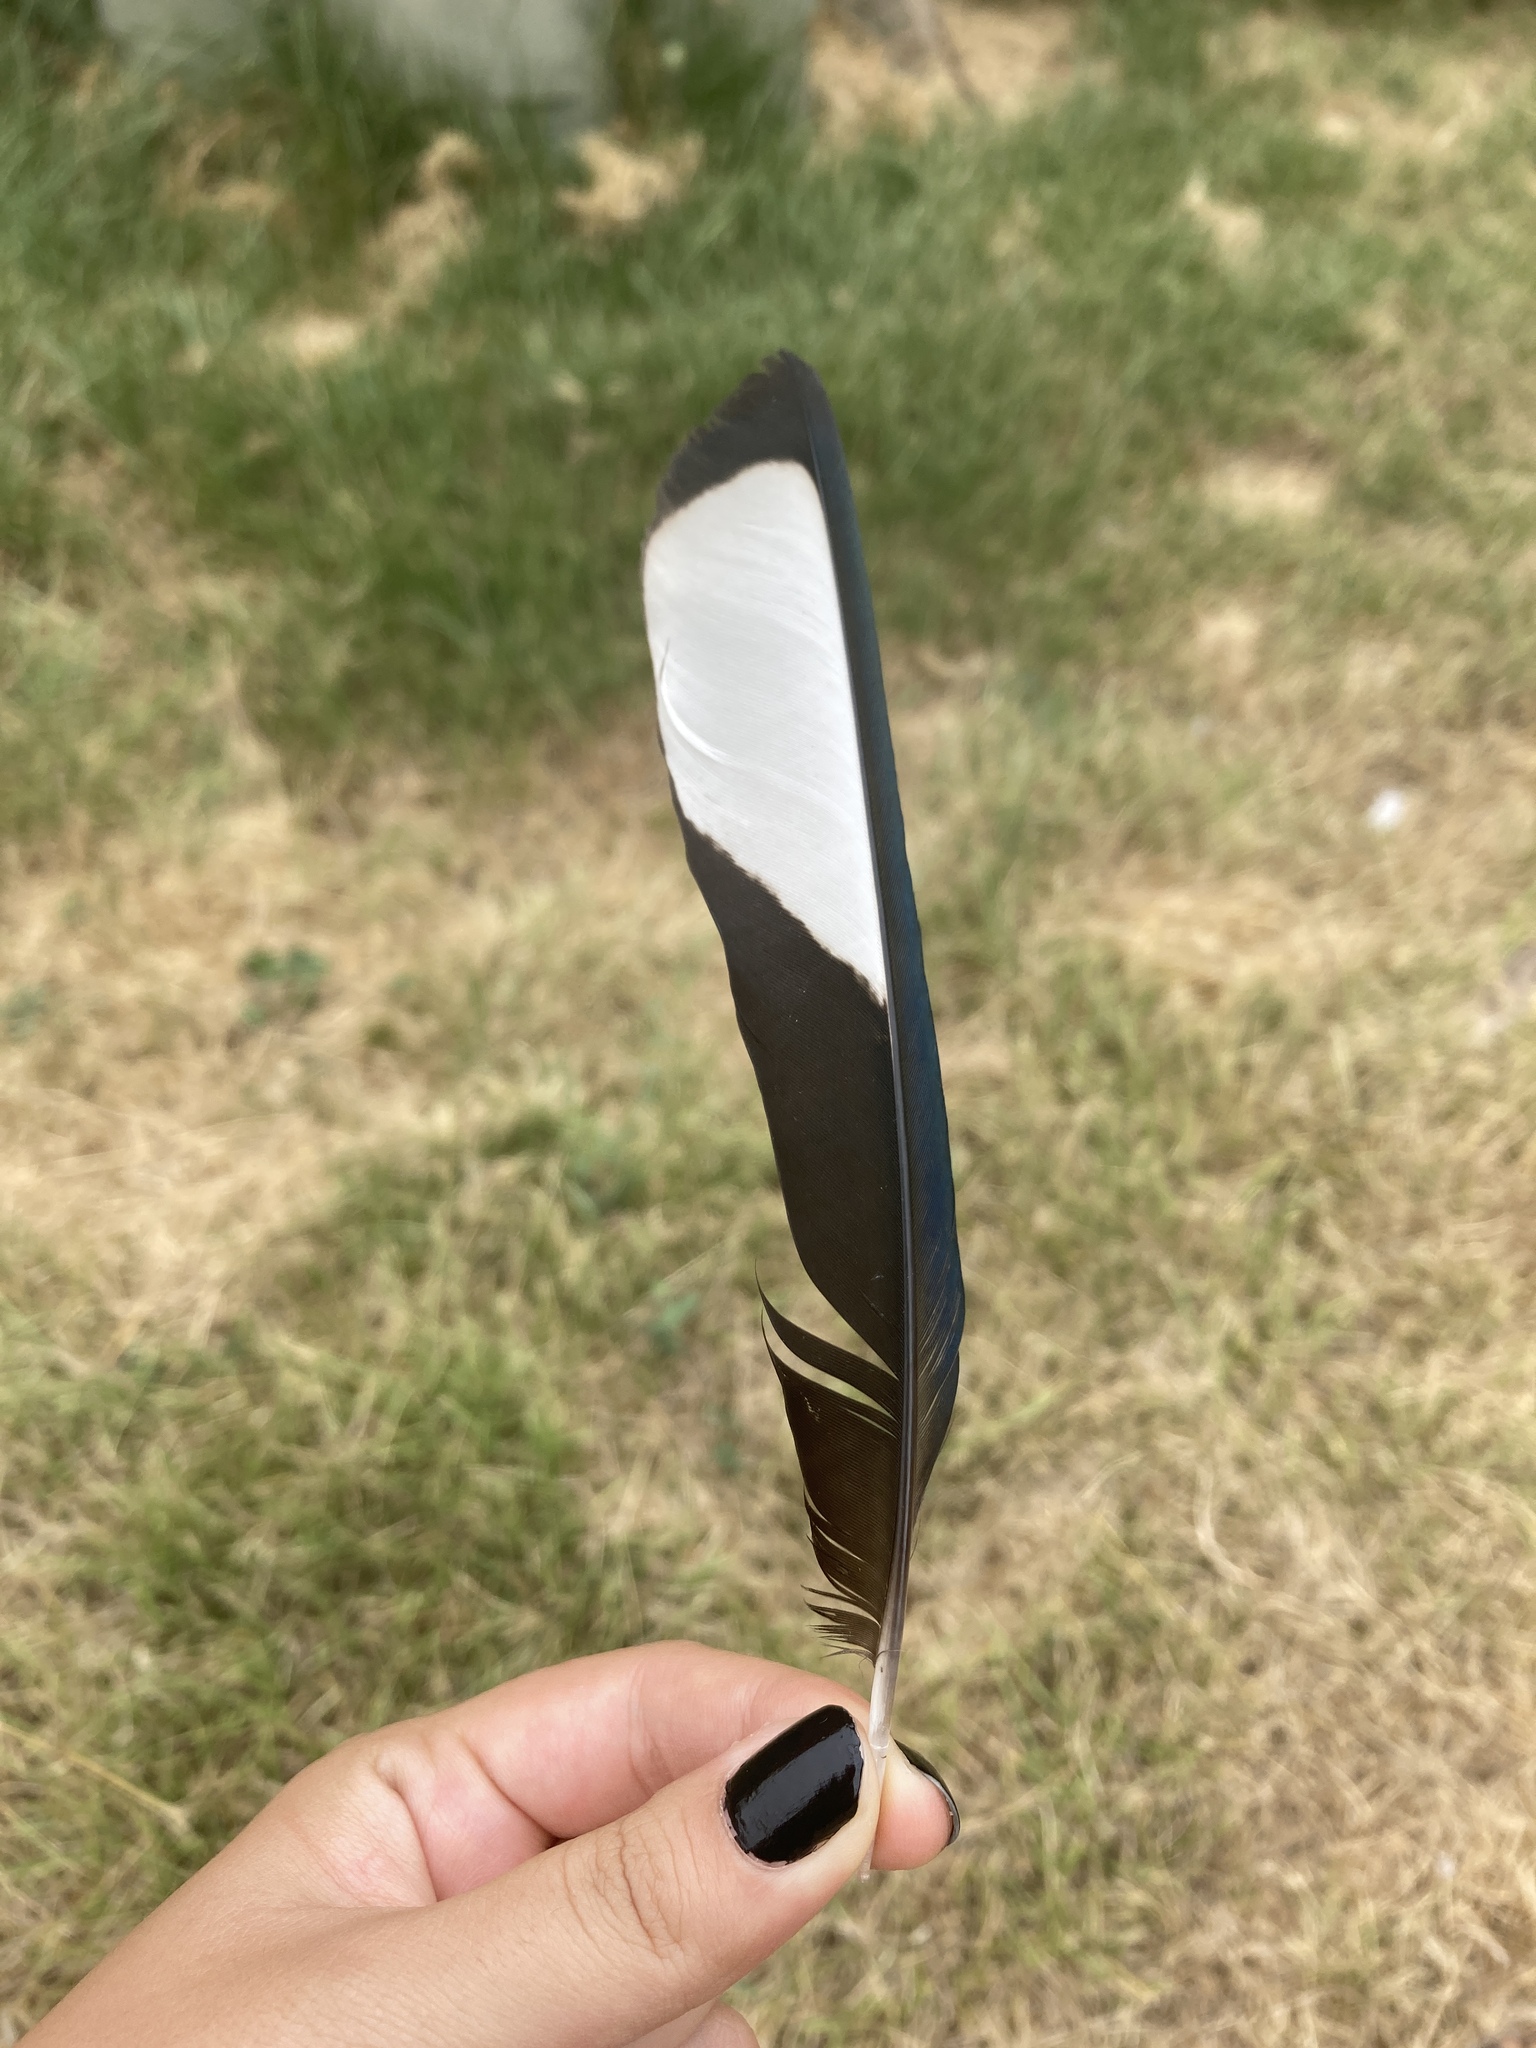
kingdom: Animalia
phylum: Chordata
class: Aves
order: Passeriformes
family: Corvidae
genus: Pica
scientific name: Pica pica
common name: Eurasian magpie
